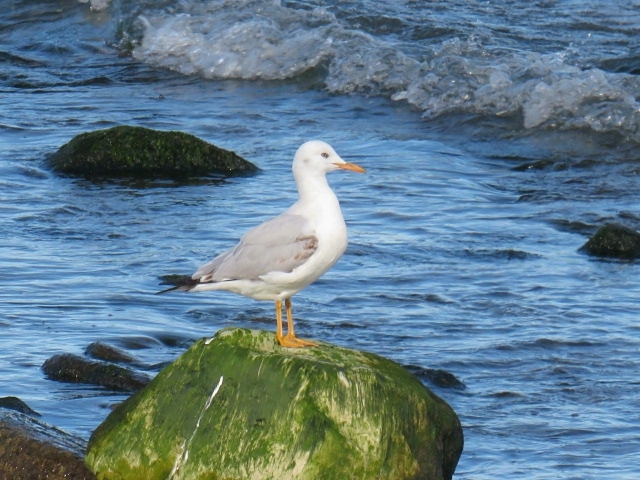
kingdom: Animalia
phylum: Chordata
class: Aves
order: Charadriiformes
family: Laridae
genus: Chroicocephalus
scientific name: Chroicocephalus genei
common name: Slender-billed gull
